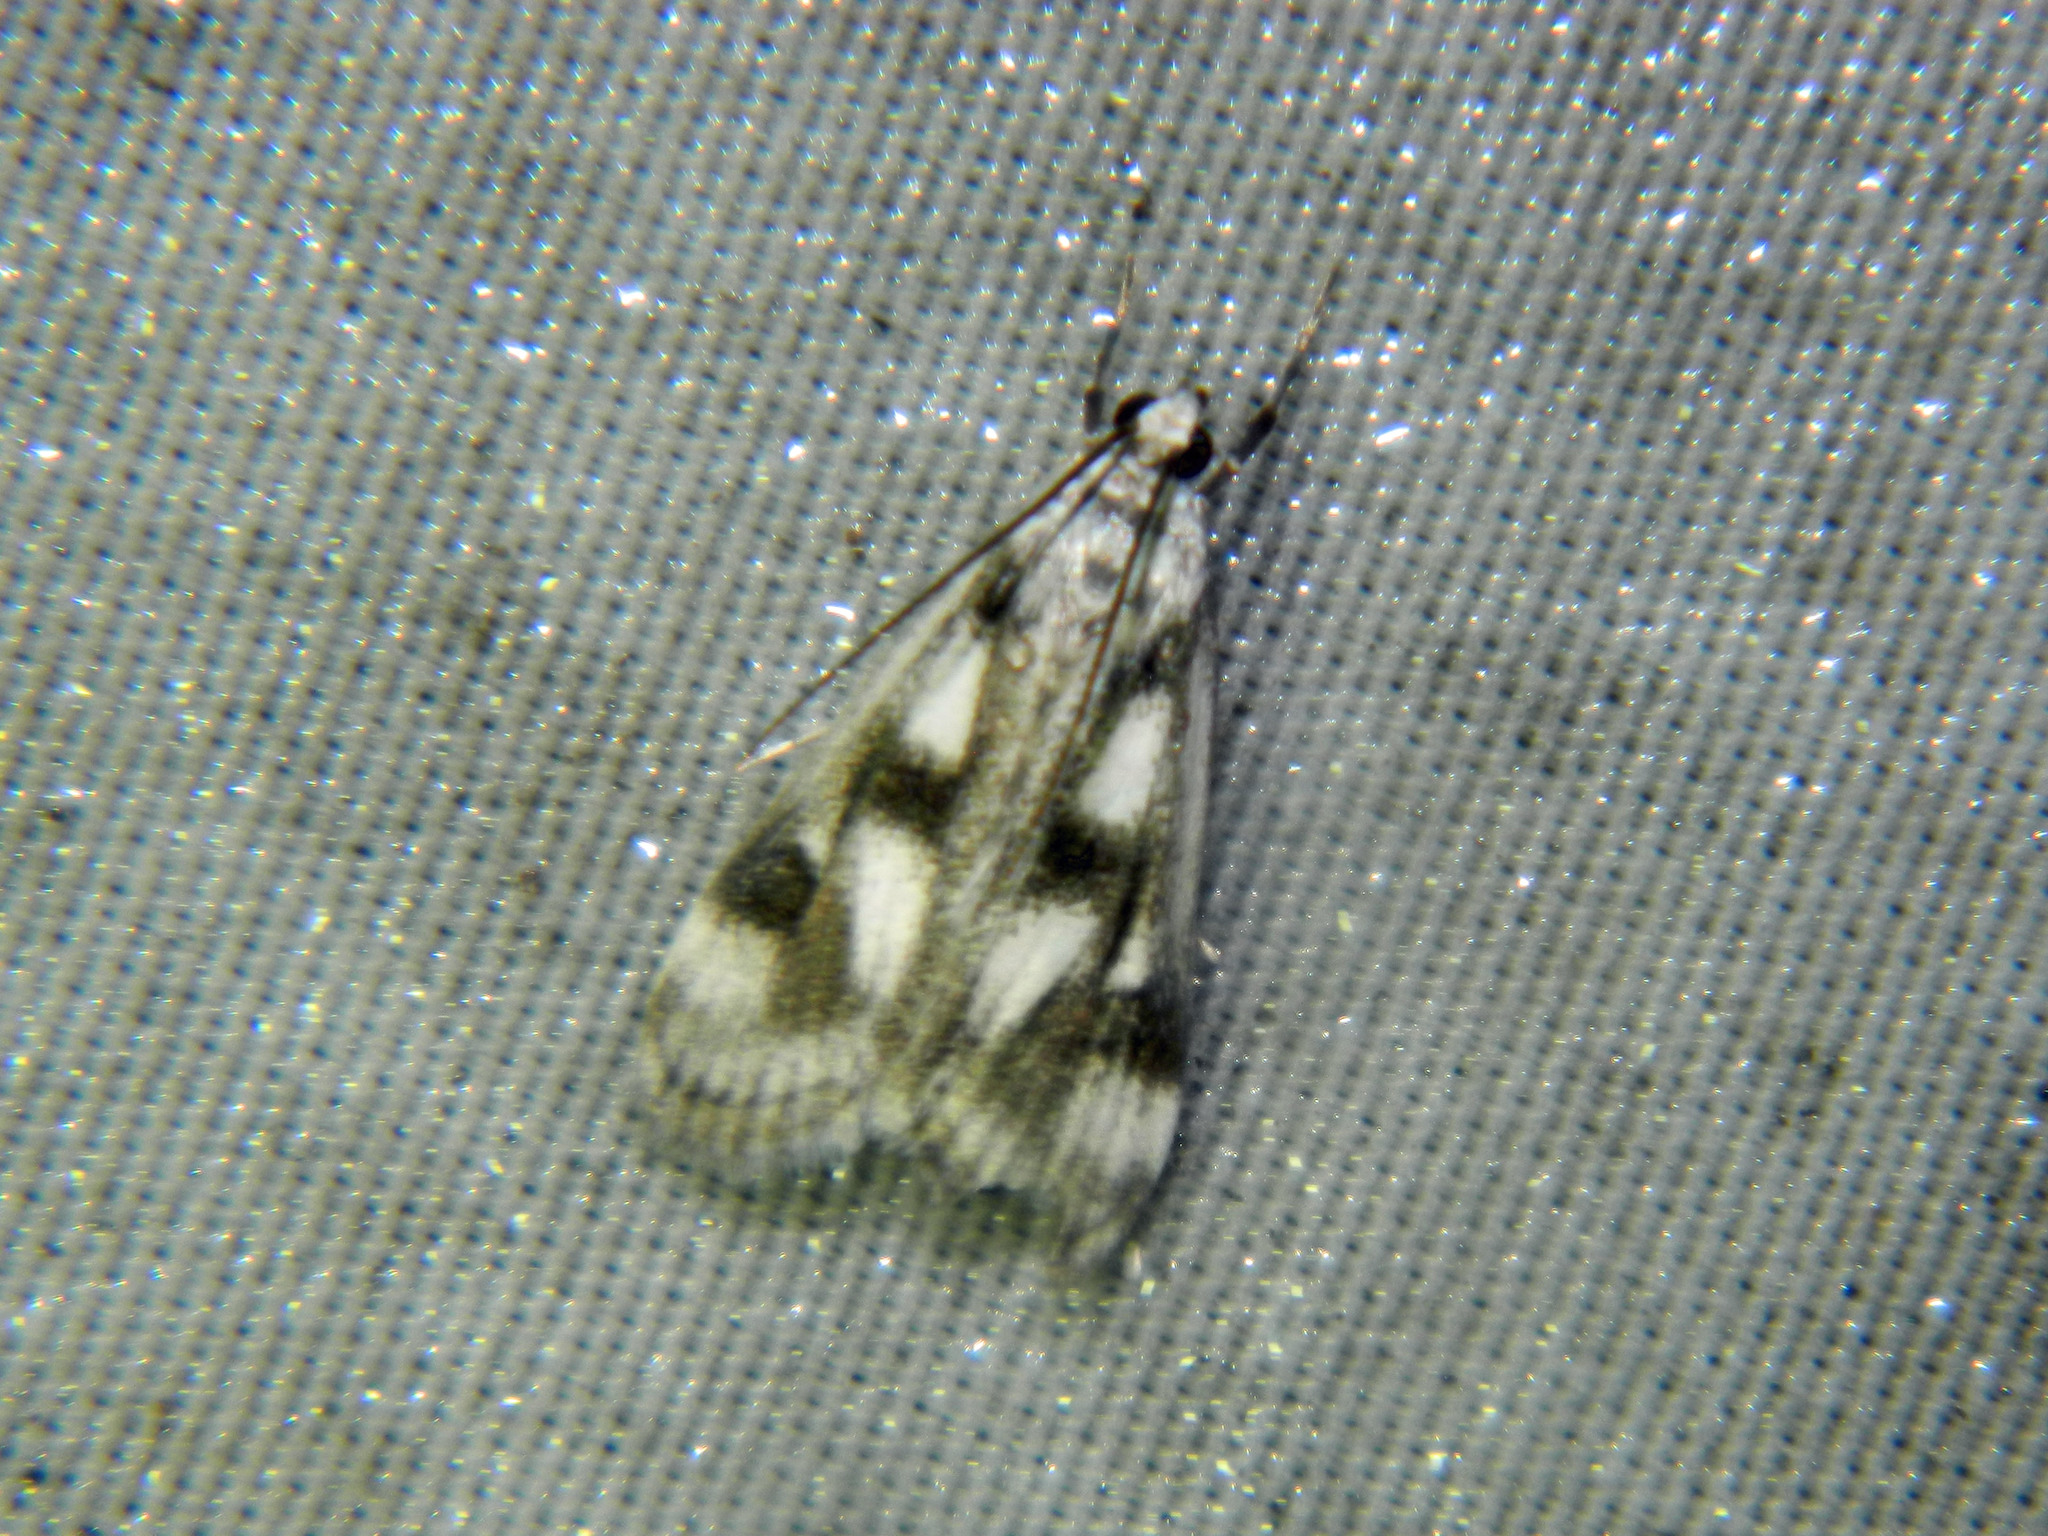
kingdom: Animalia
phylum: Arthropoda
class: Insecta
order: Lepidoptera
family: Crambidae
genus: Parapoynx
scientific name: Parapoynx maculalis
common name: Polymorphic pondweed moth
